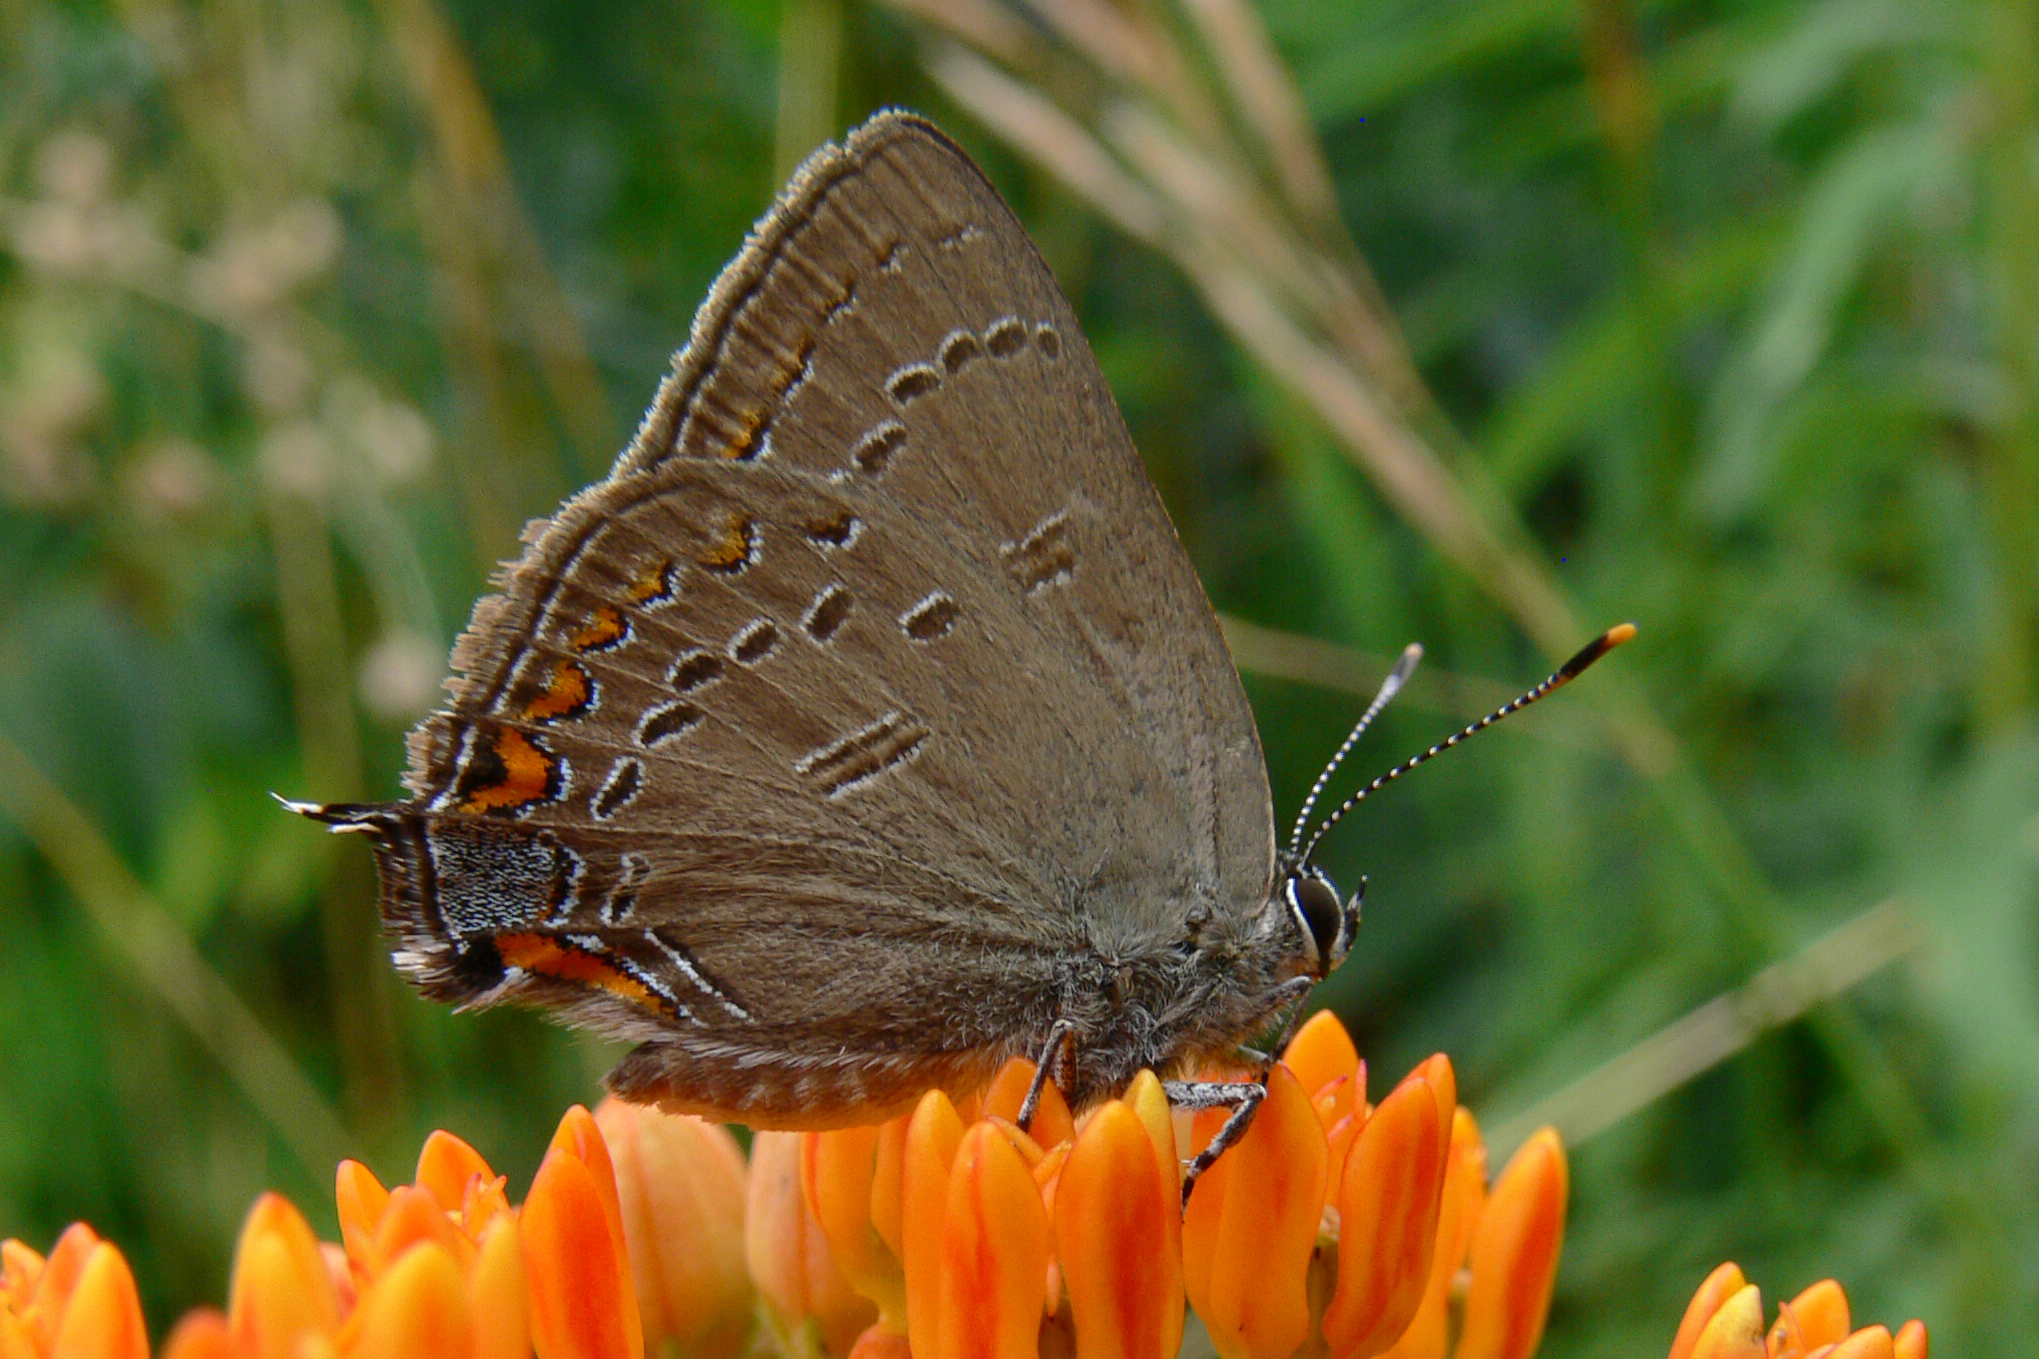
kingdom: Animalia
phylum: Arthropoda
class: Insecta
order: Lepidoptera
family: Lycaenidae
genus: Satyrium
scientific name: Satyrium edwardsii
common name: Edwards' hairstreak
